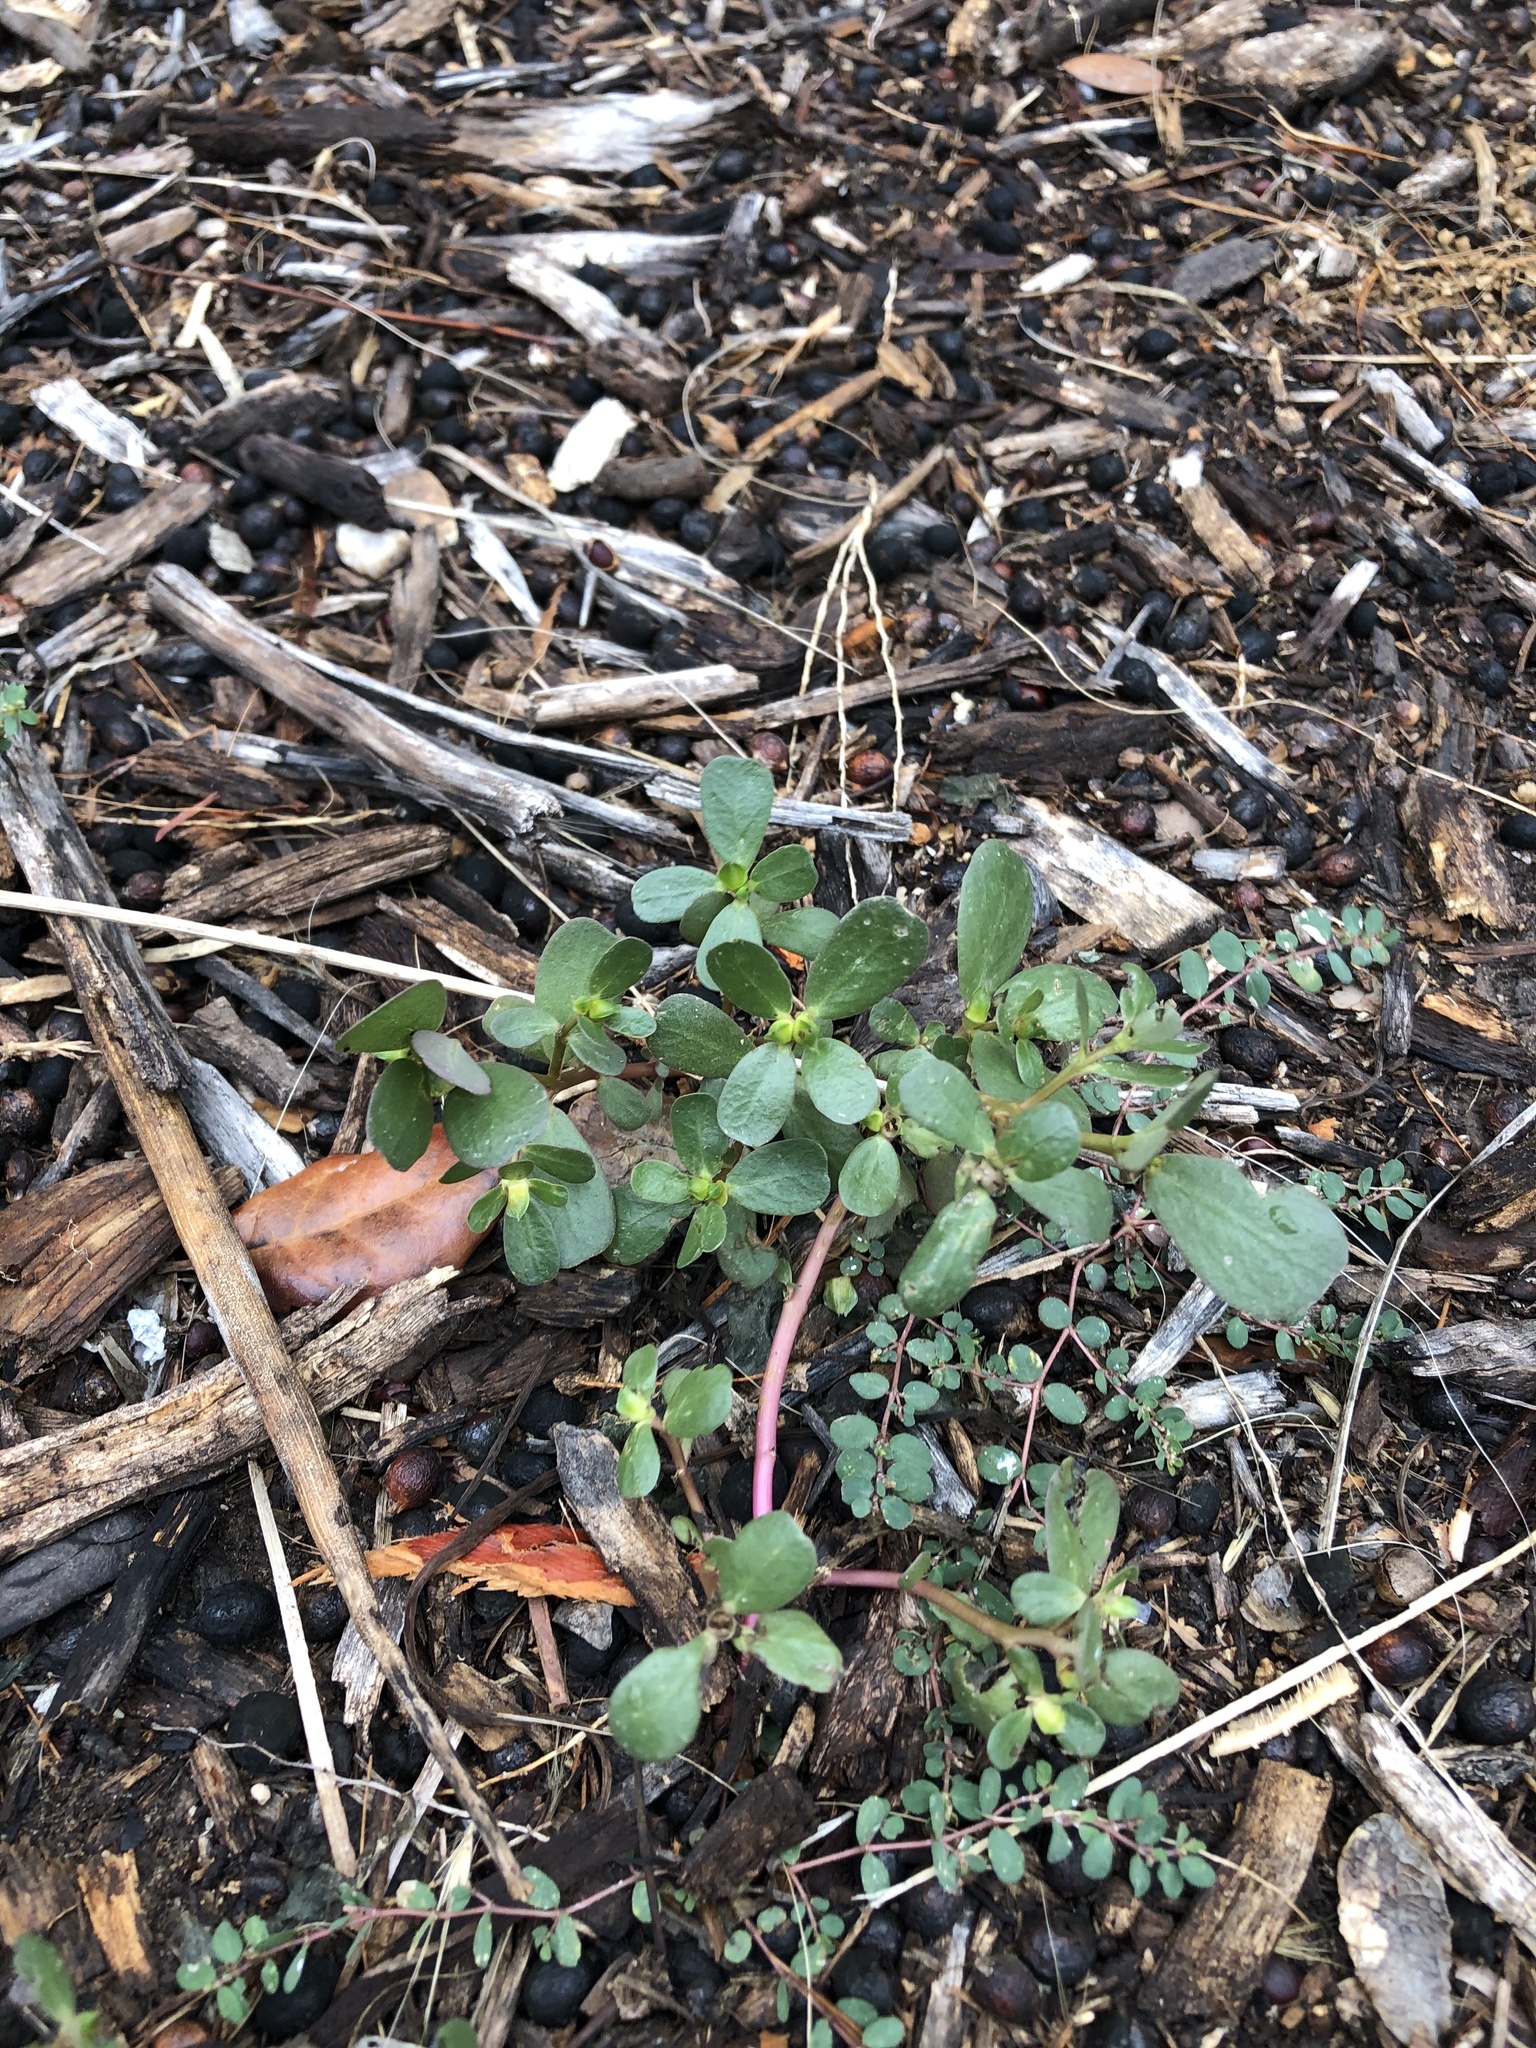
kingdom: Plantae
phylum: Tracheophyta
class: Magnoliopsida
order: Caryophyllales
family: Portulacaceae
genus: Portulaca
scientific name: Portulaca oleracea
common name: Common purslane
